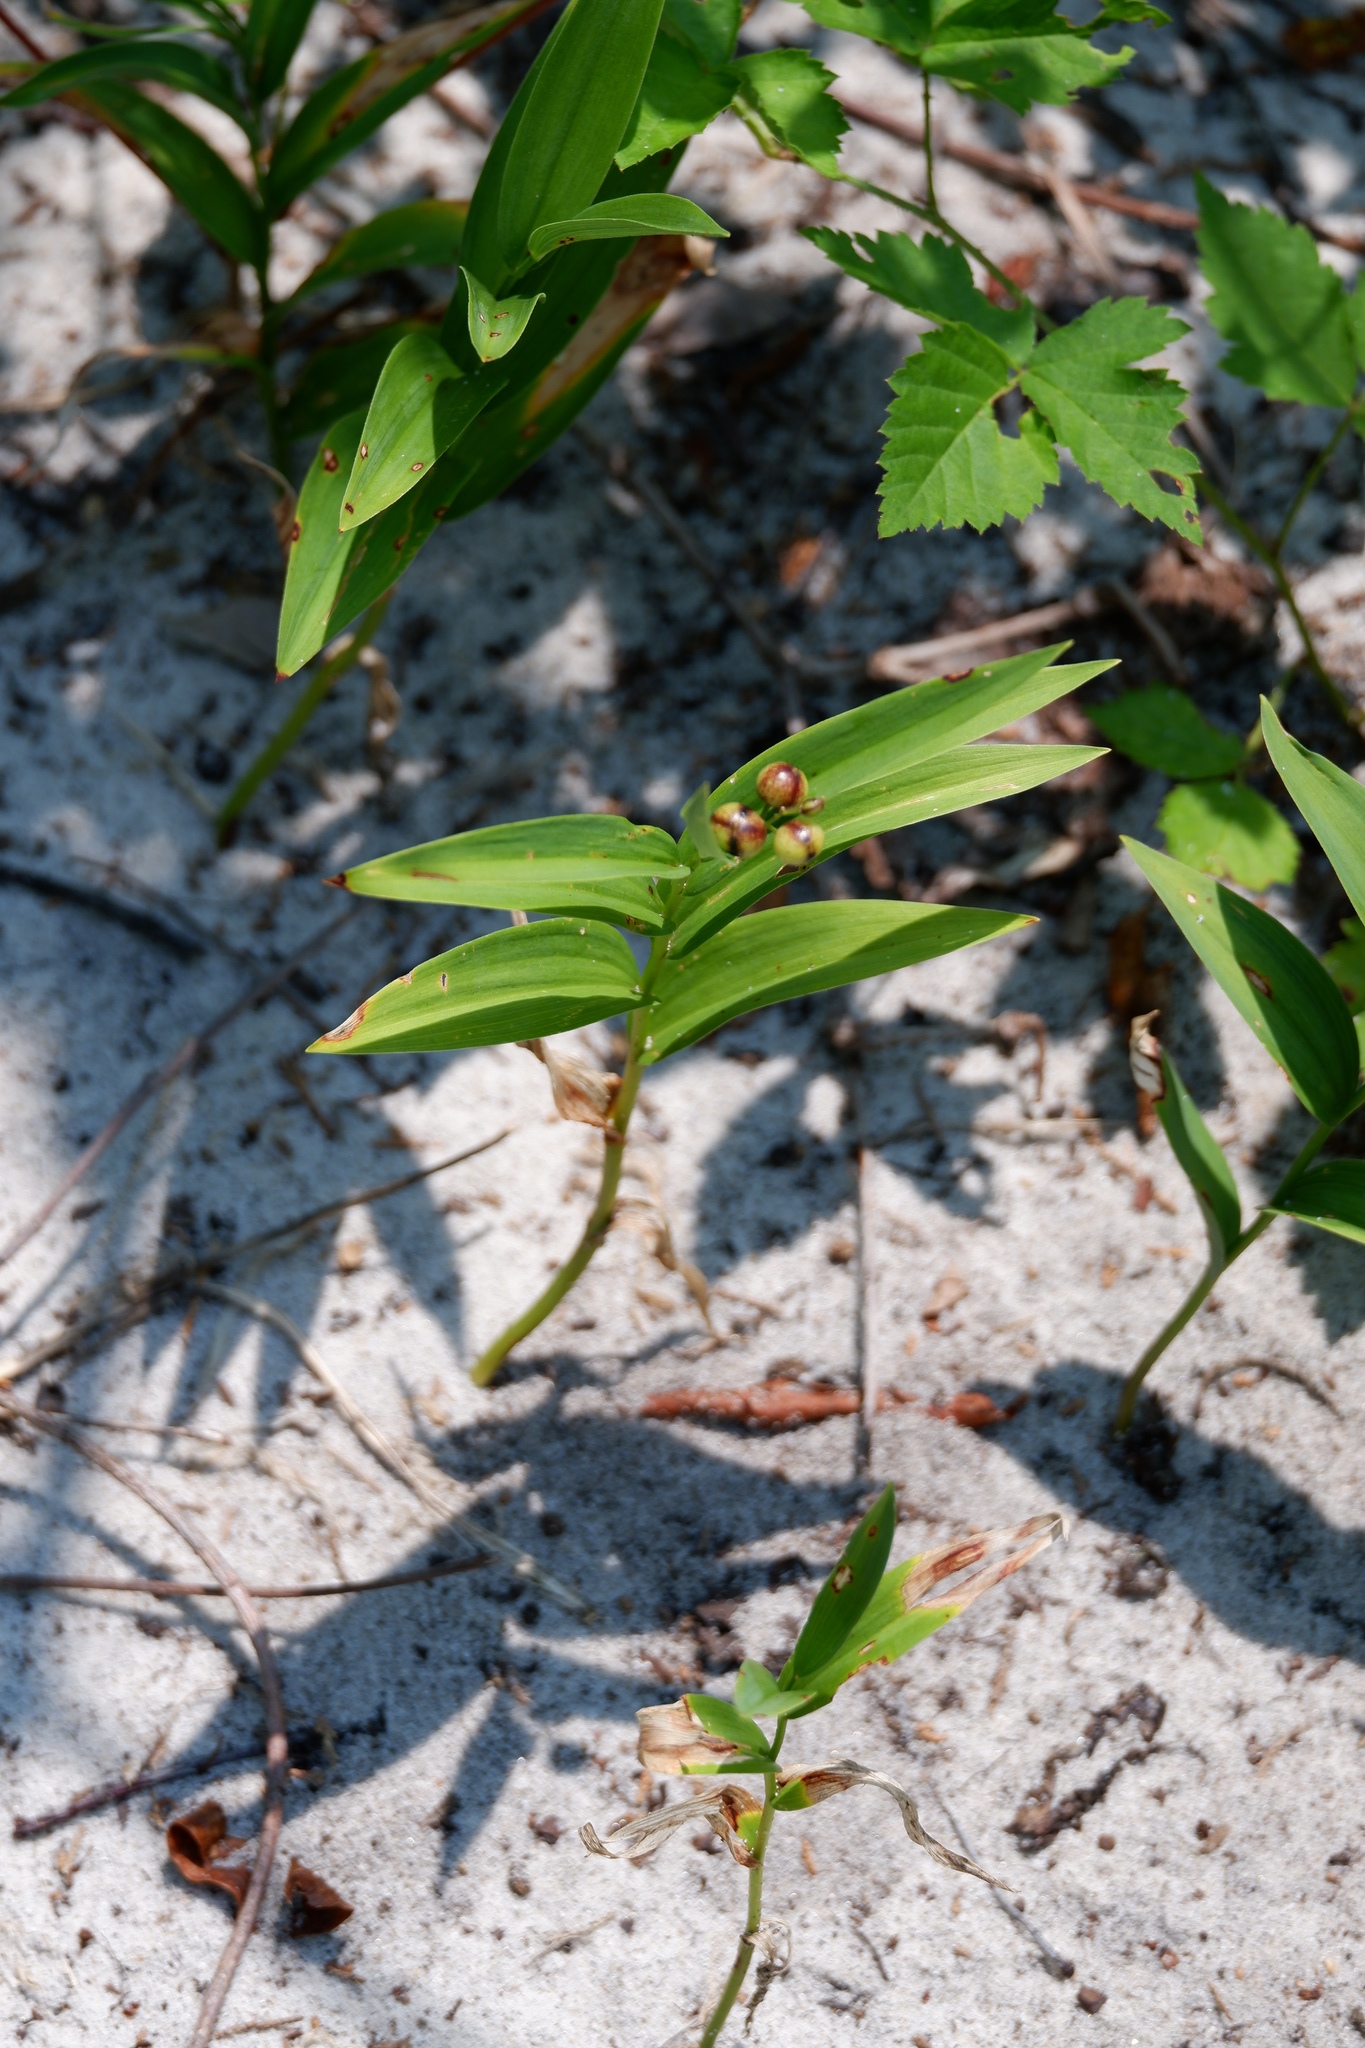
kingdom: Plantae
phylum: Tracheophyta
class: Liliopsida
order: Asparagales
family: Asparagaceae
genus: Maianthemum
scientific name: Maianthemum stellatum
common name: Little false solomon's seal
